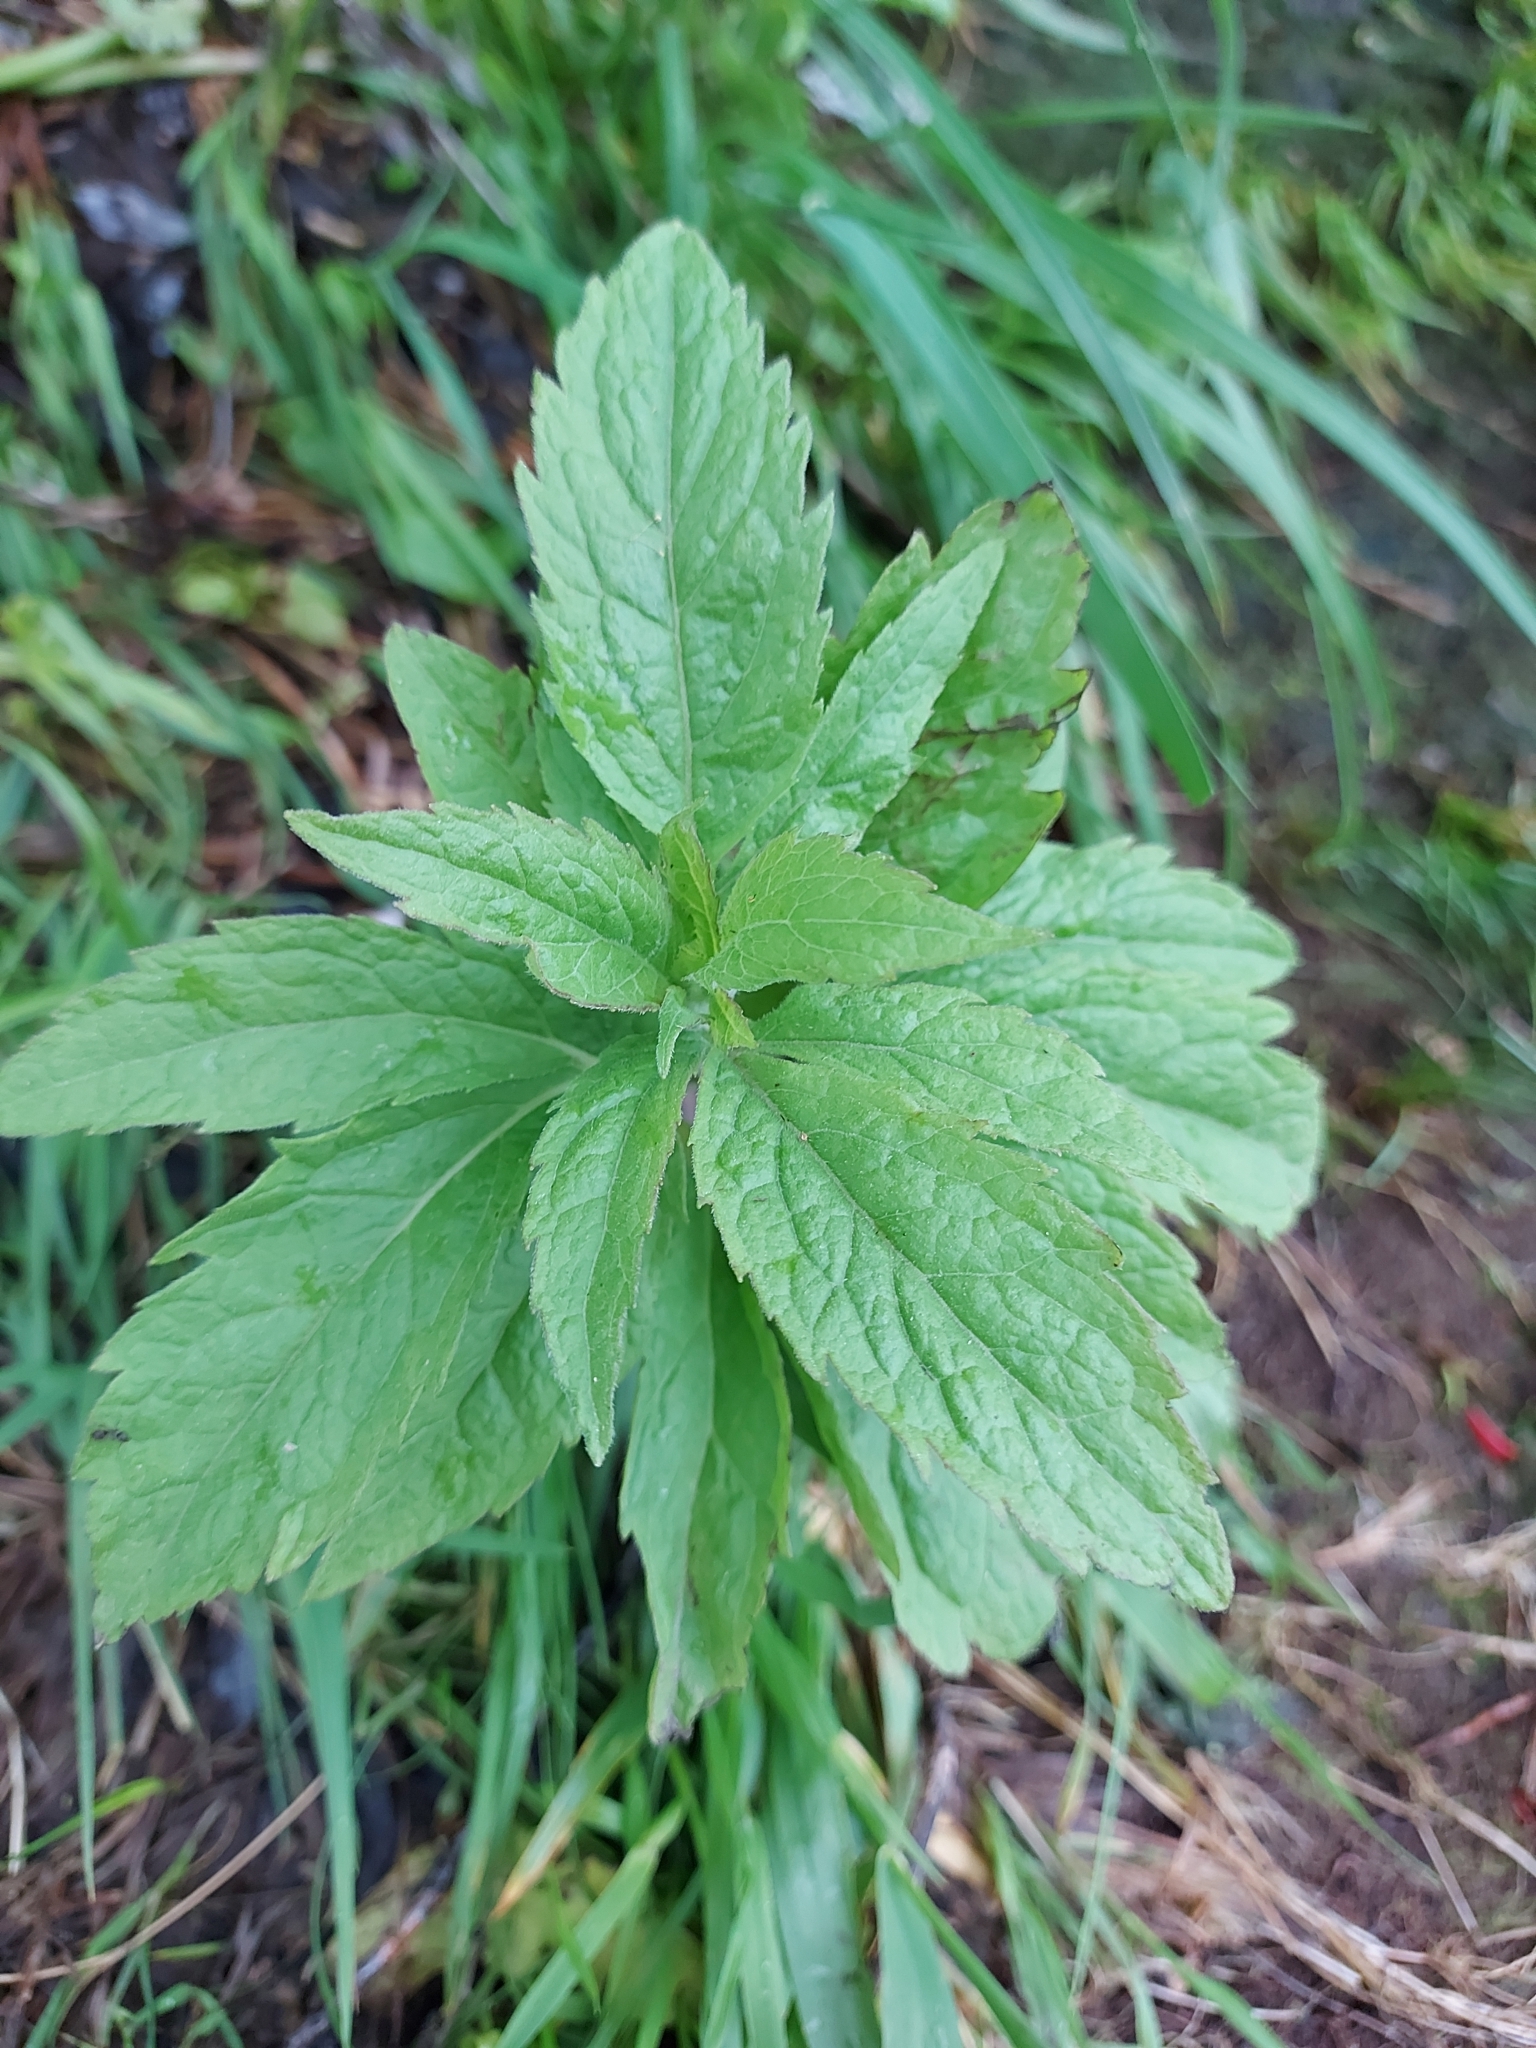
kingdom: Plantae
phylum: Tracheophyta
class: Magnoliopsida
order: Asterales
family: Asteraceae
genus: Eupatorium
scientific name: Eupatorium cannabinum
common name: Hemp-agrimony
